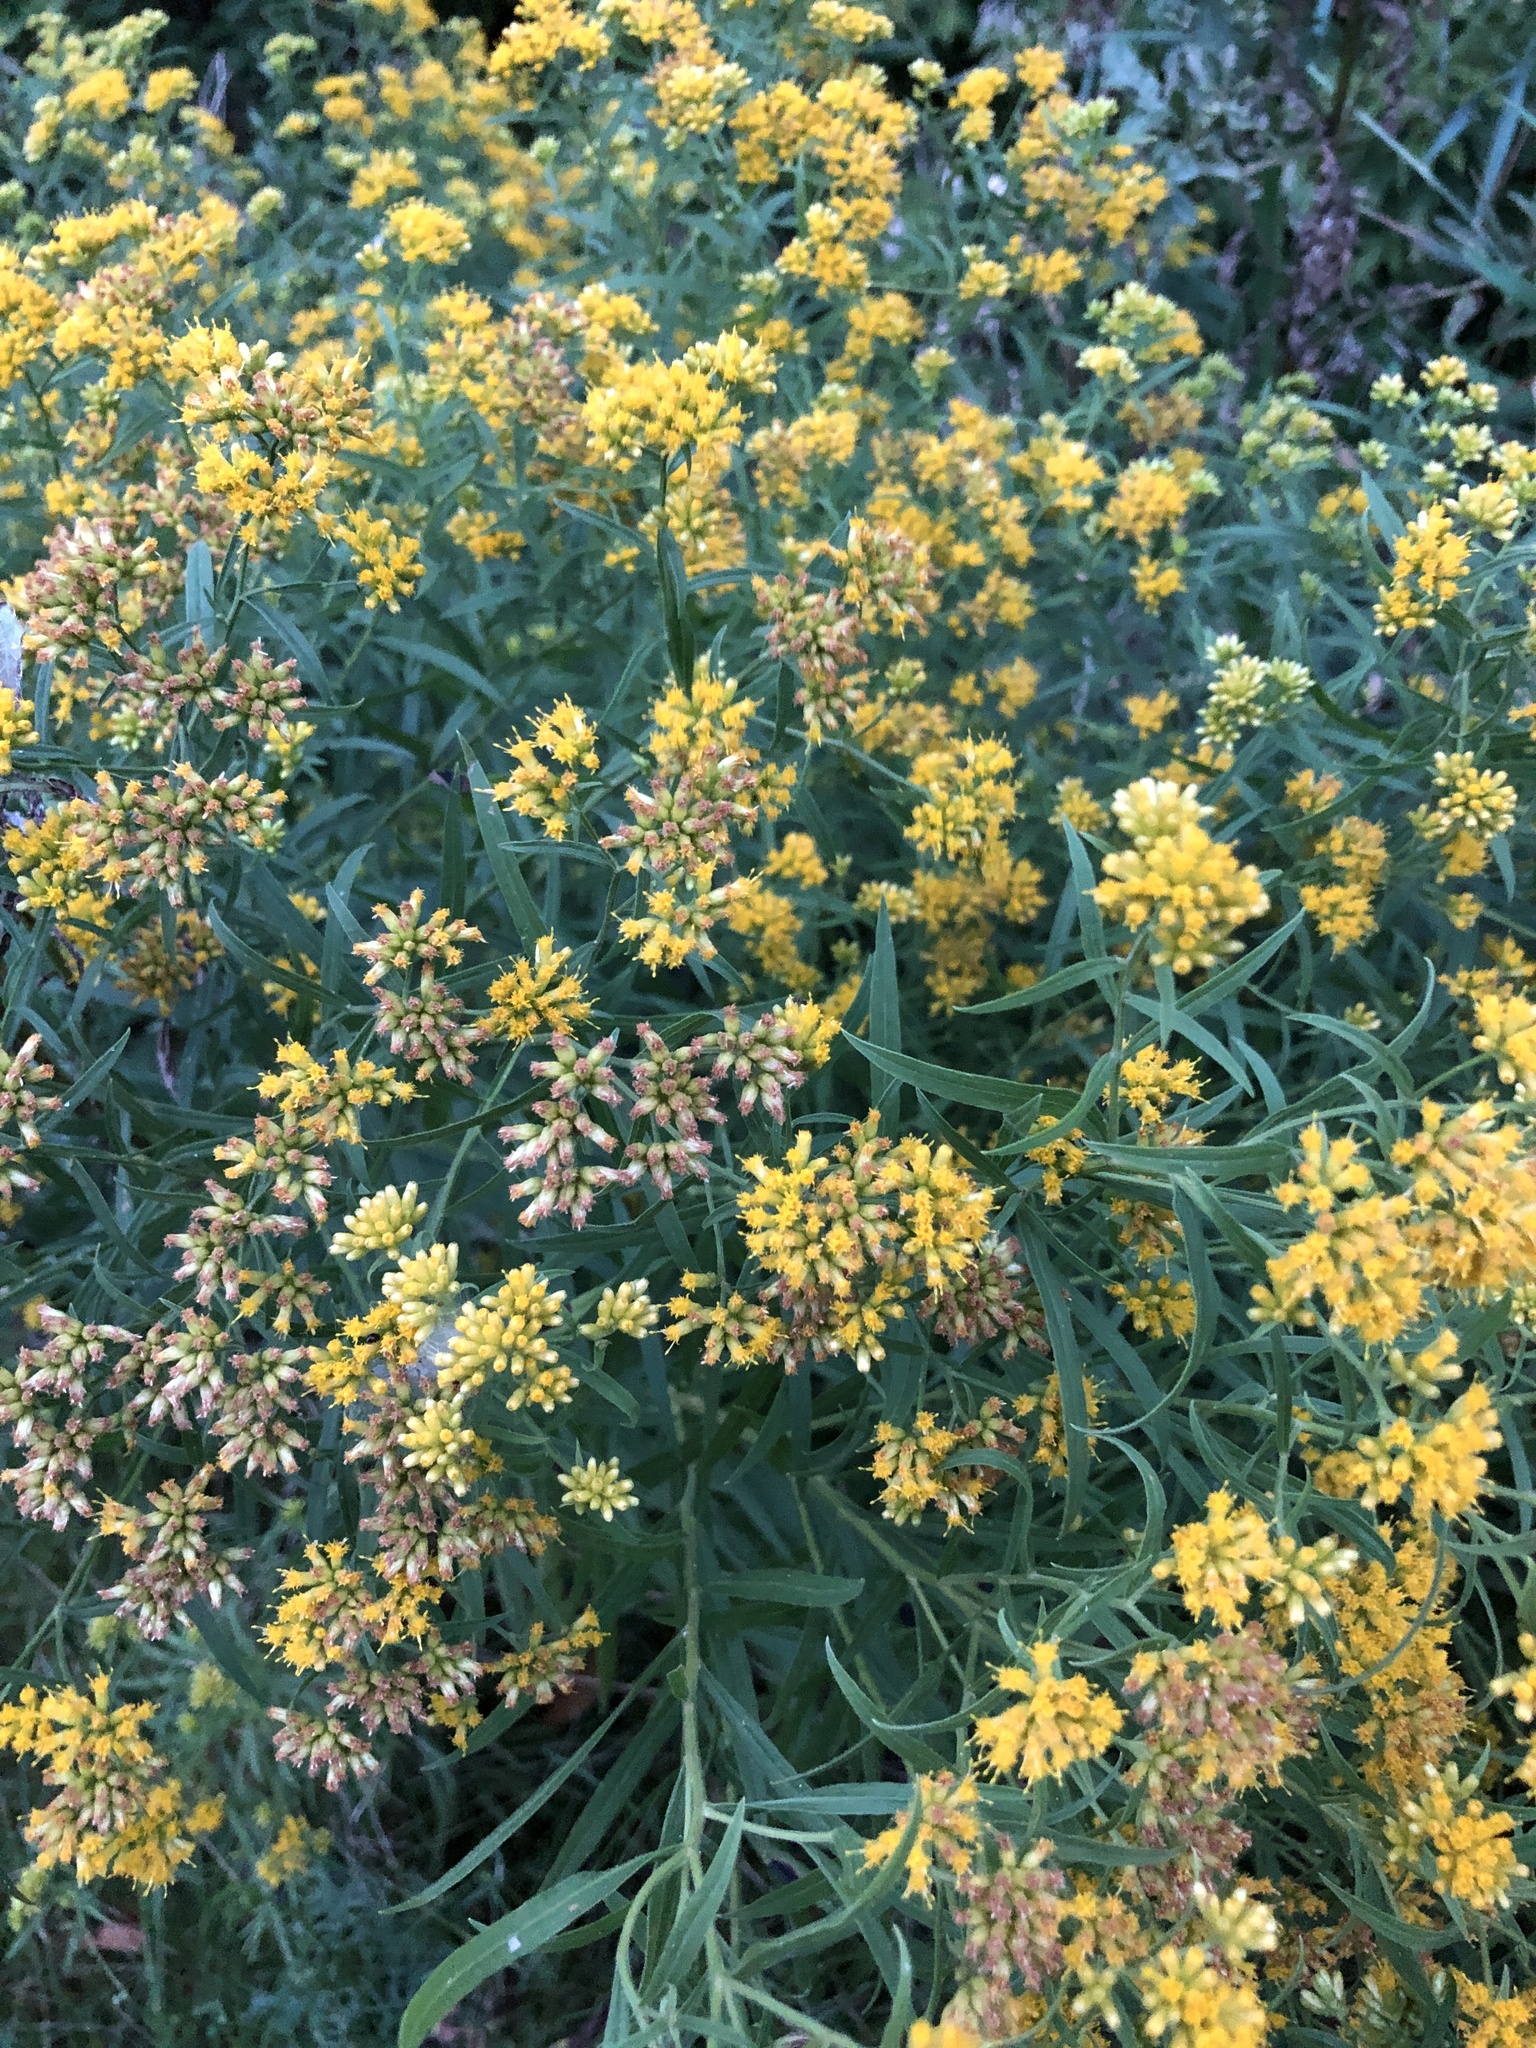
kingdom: Plantae
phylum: Tracheophyta
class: Magnoliopsida
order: Asterales
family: Asteraceae
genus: Euthamia
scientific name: Euthamia graminifolia
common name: Common goldentop
